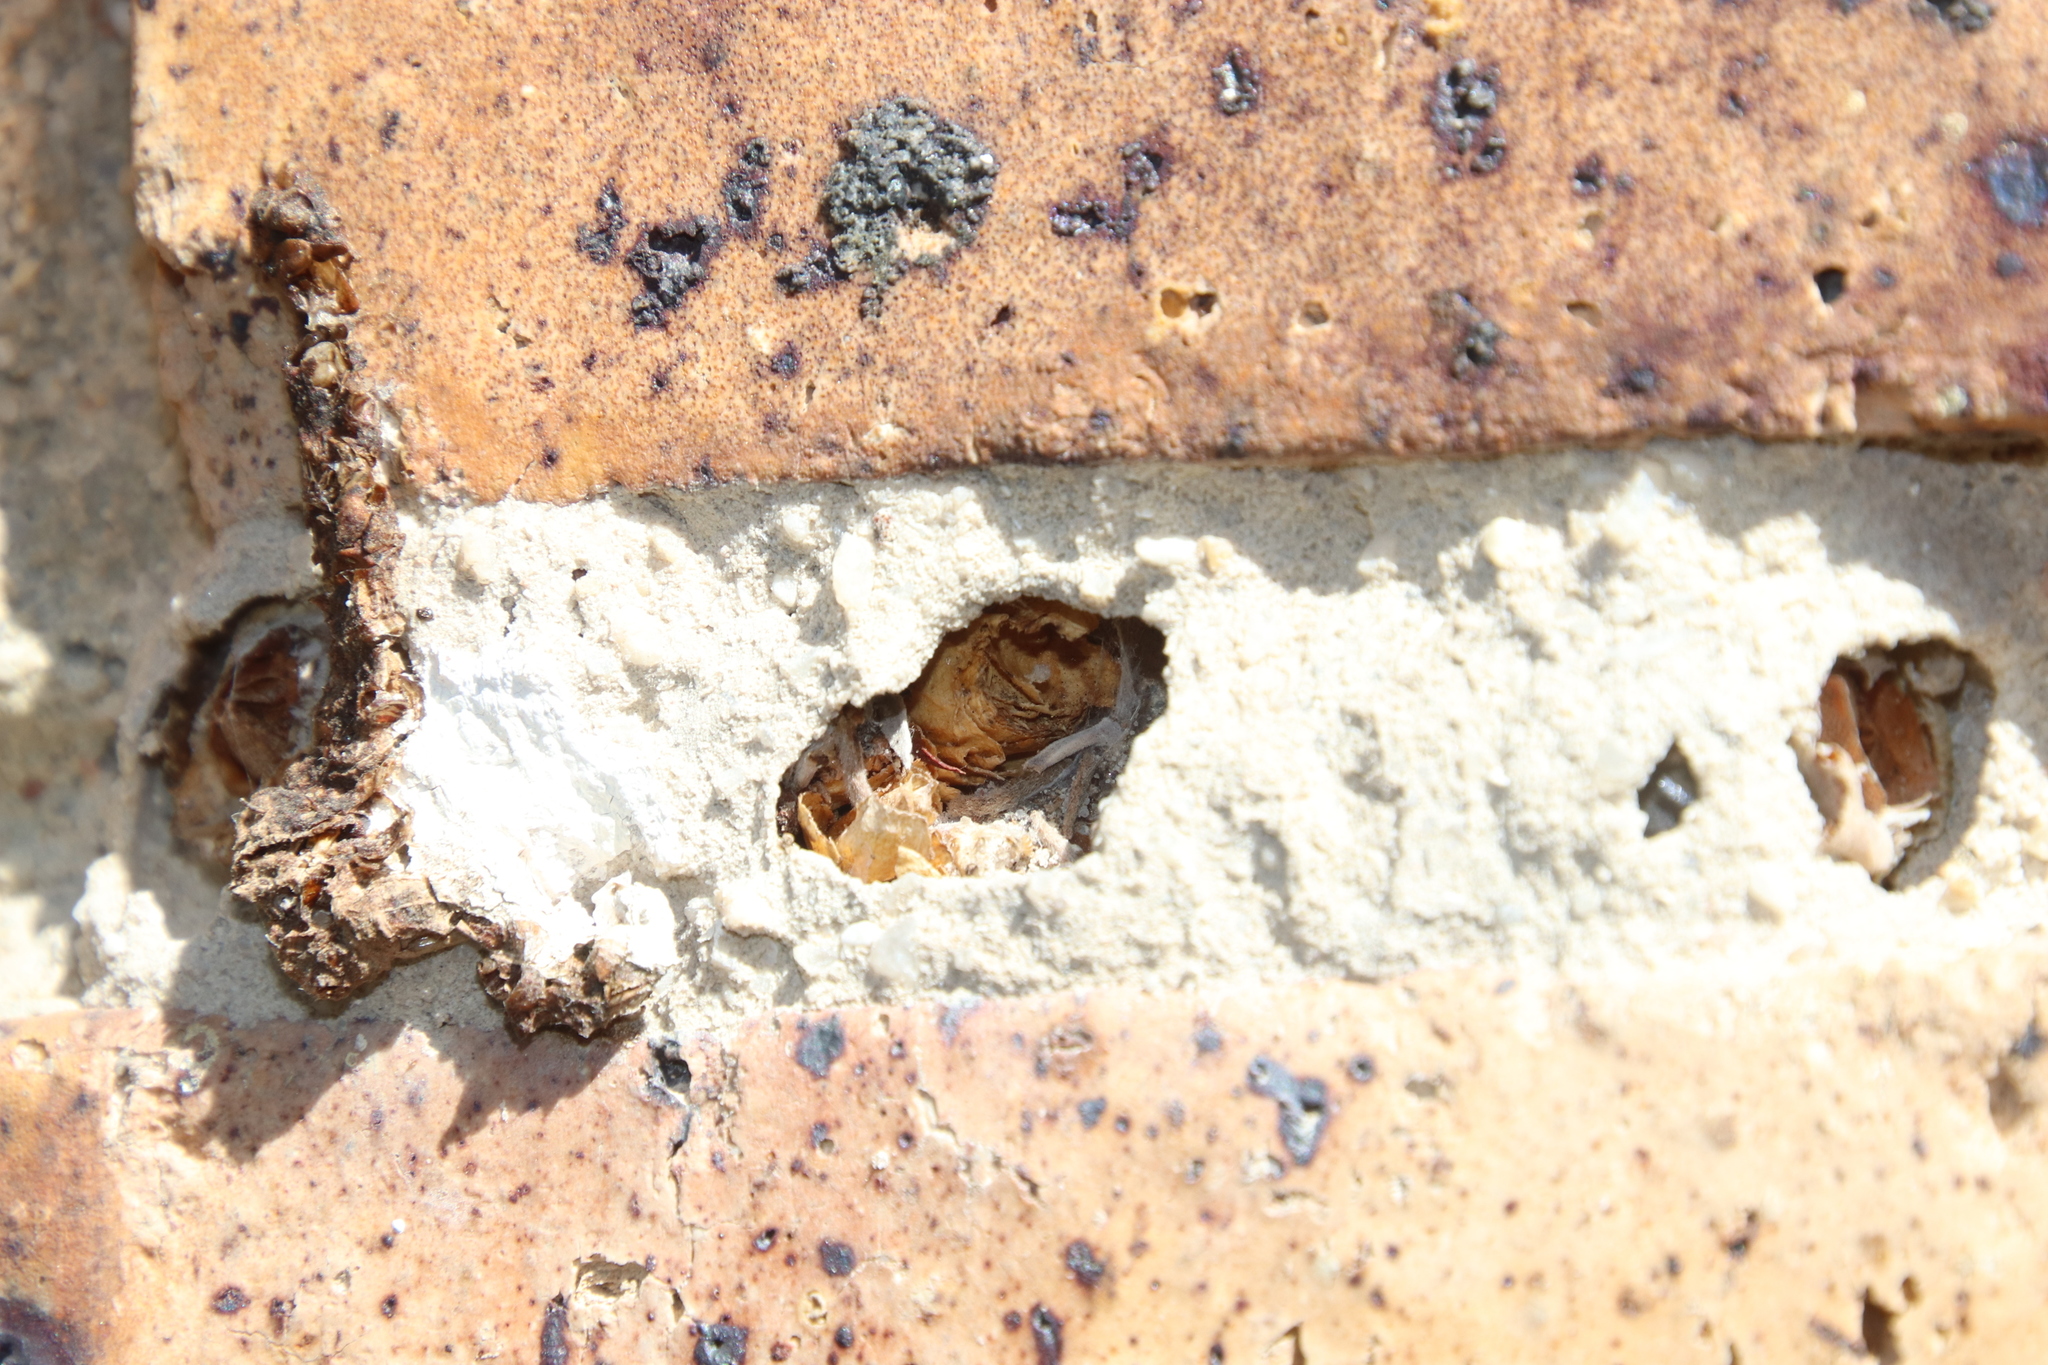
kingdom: Animalia
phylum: Arthropoda
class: Insecta
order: Hymenoptera
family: Eumenidae
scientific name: Eumenidae
